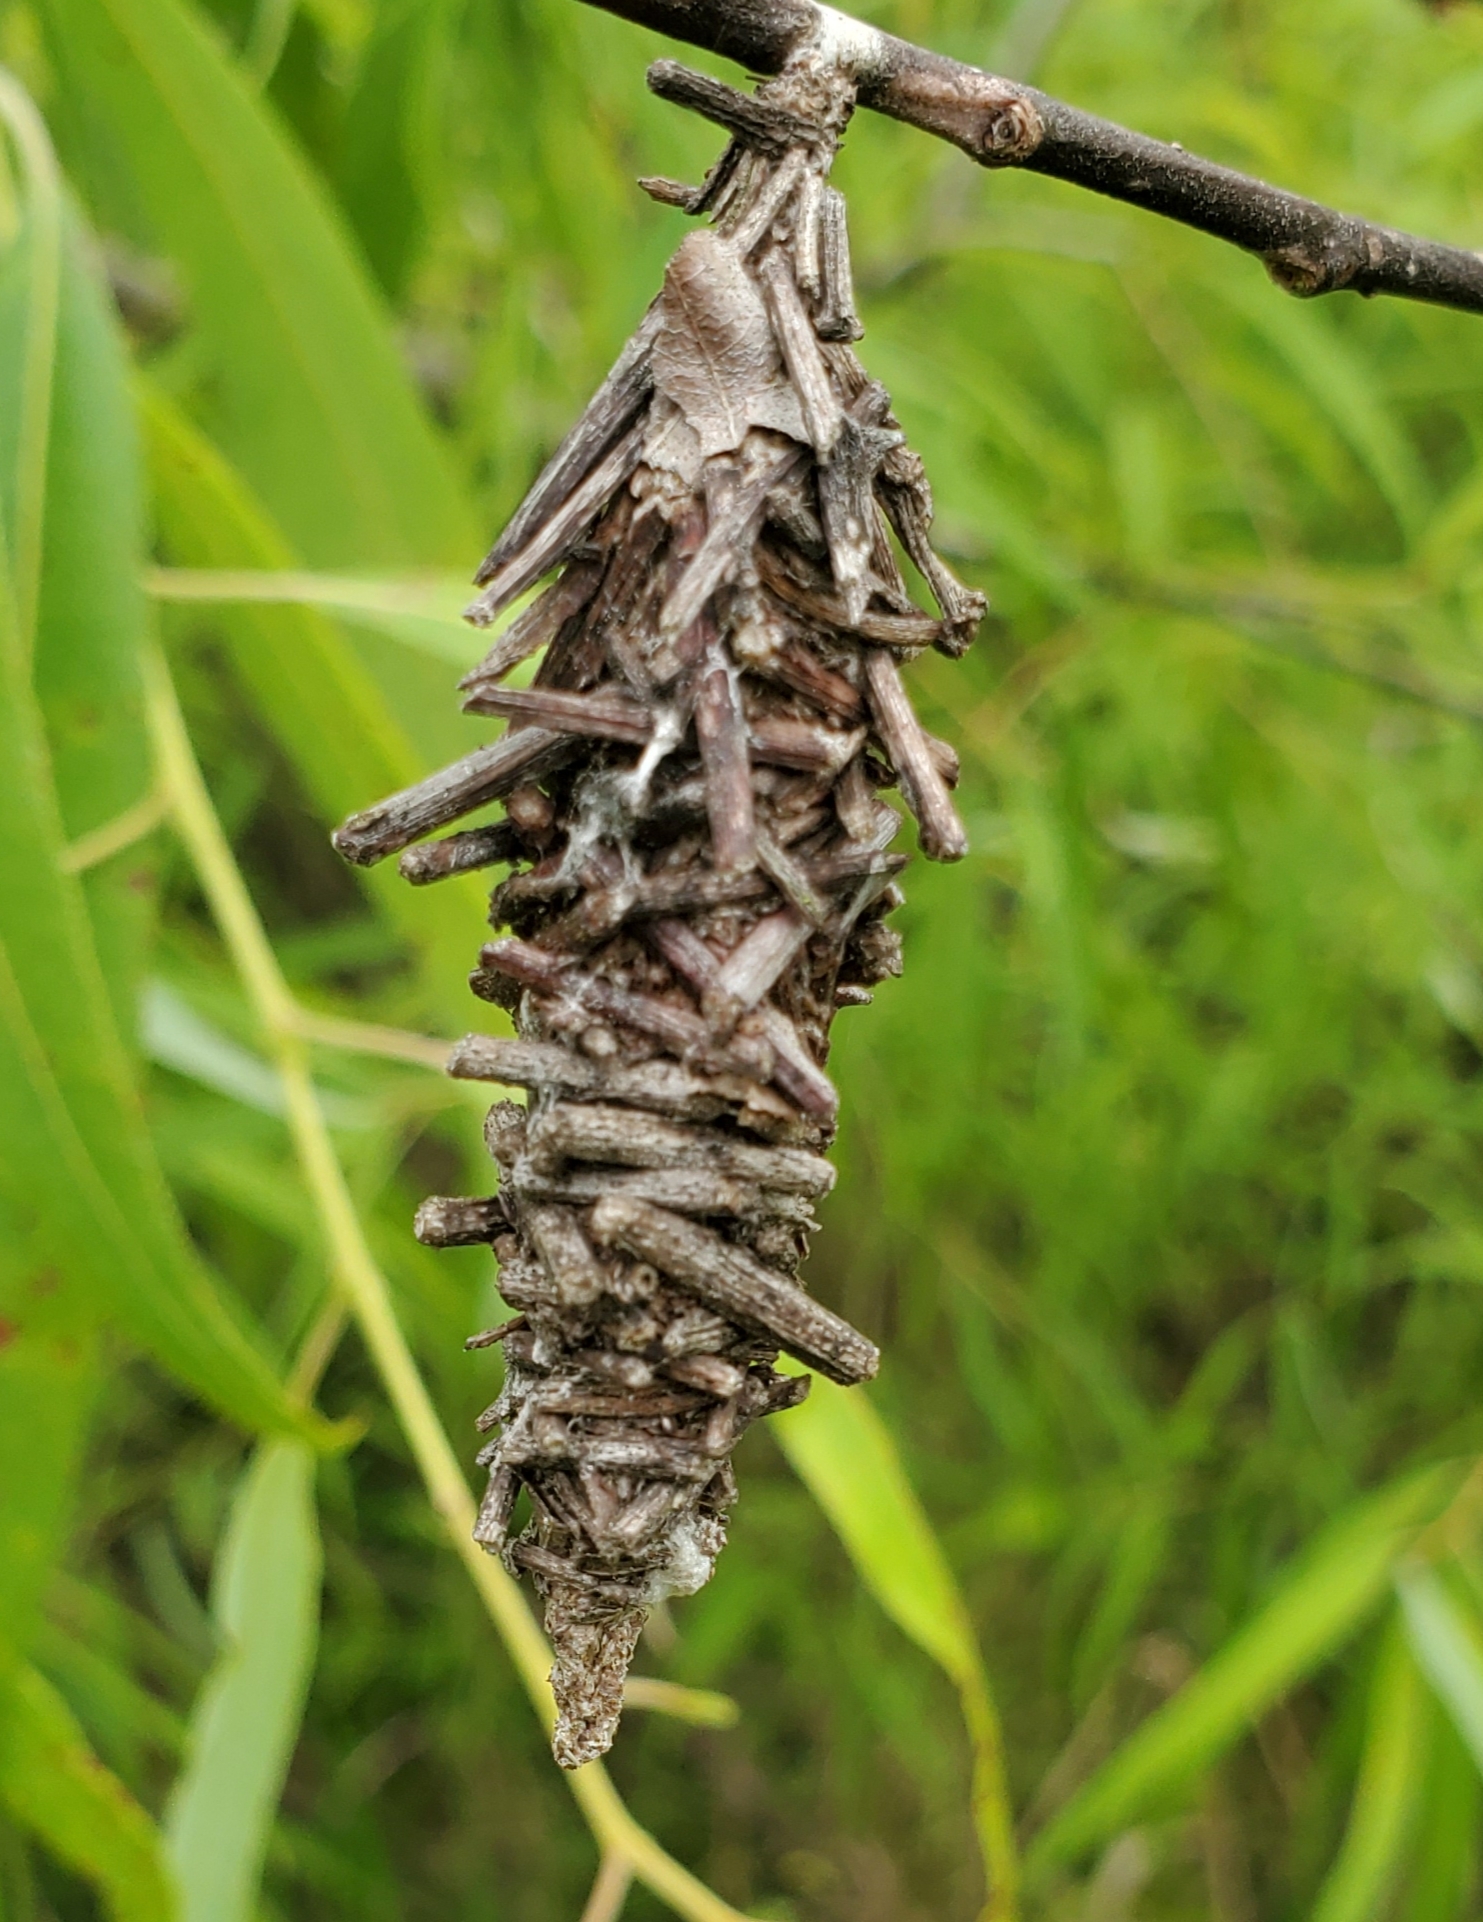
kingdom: Animalia
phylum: Arthropoda
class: Insecta
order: Lepidoptera
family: Psychidae
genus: Oiketicus
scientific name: Oiketicus
